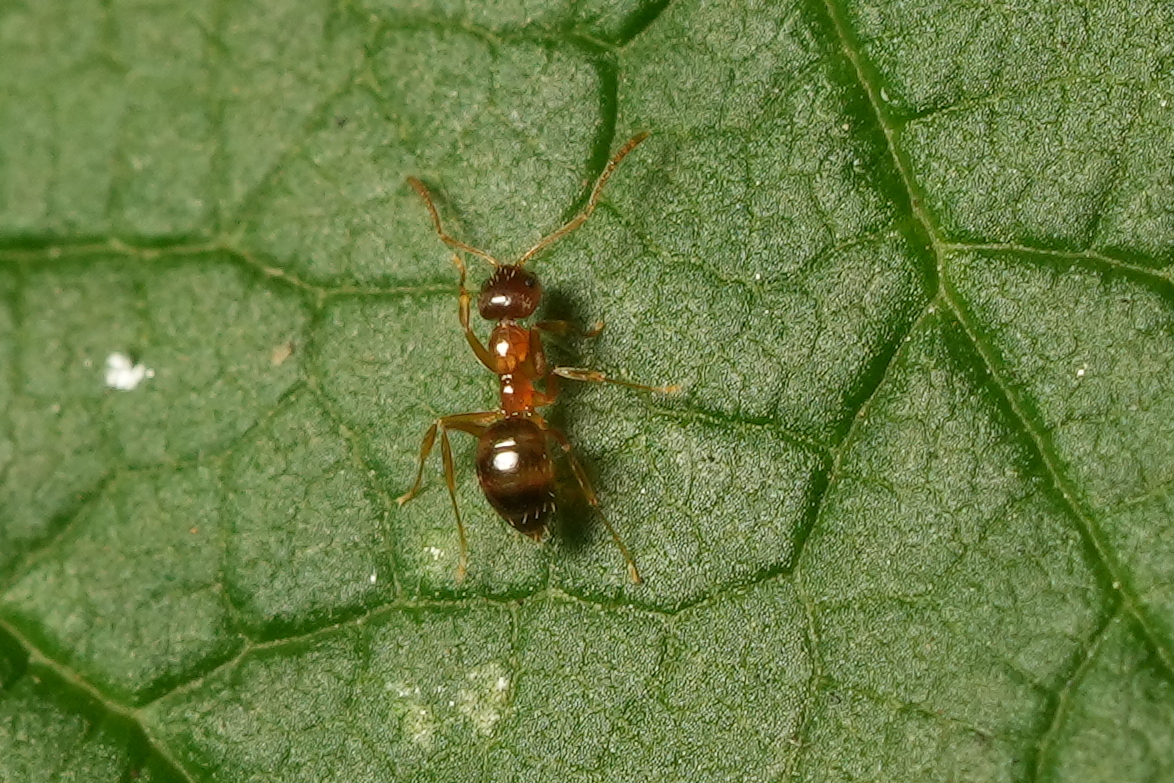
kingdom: Animalia
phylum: Arthropoda
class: Insecta
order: Hymenoptera
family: Formicidae
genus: Paratrechina
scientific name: Paratrechina flavipes
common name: Eastern asian formicine ant
